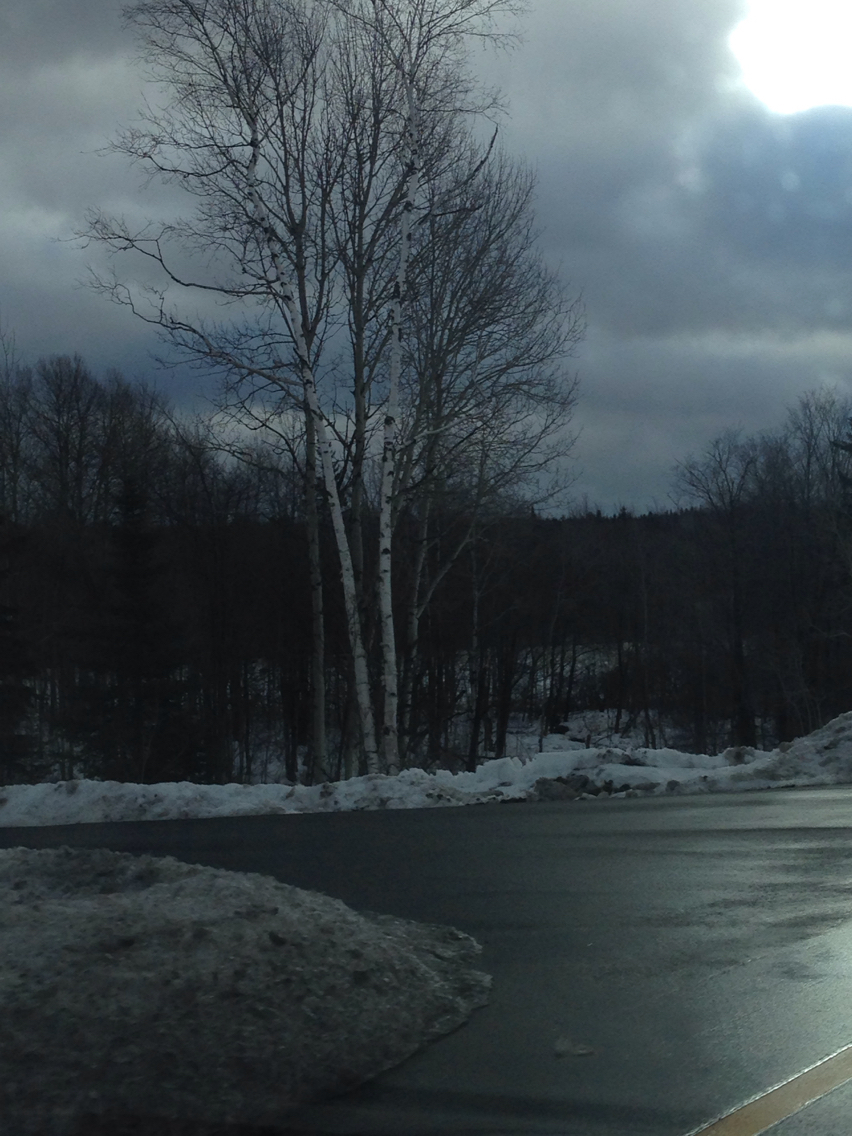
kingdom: Plantae
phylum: Tracheophyta
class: Magnoliopsida
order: Fagales
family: Betulaceae
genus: Betula
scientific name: Betula papyrifera
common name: Paper birch
